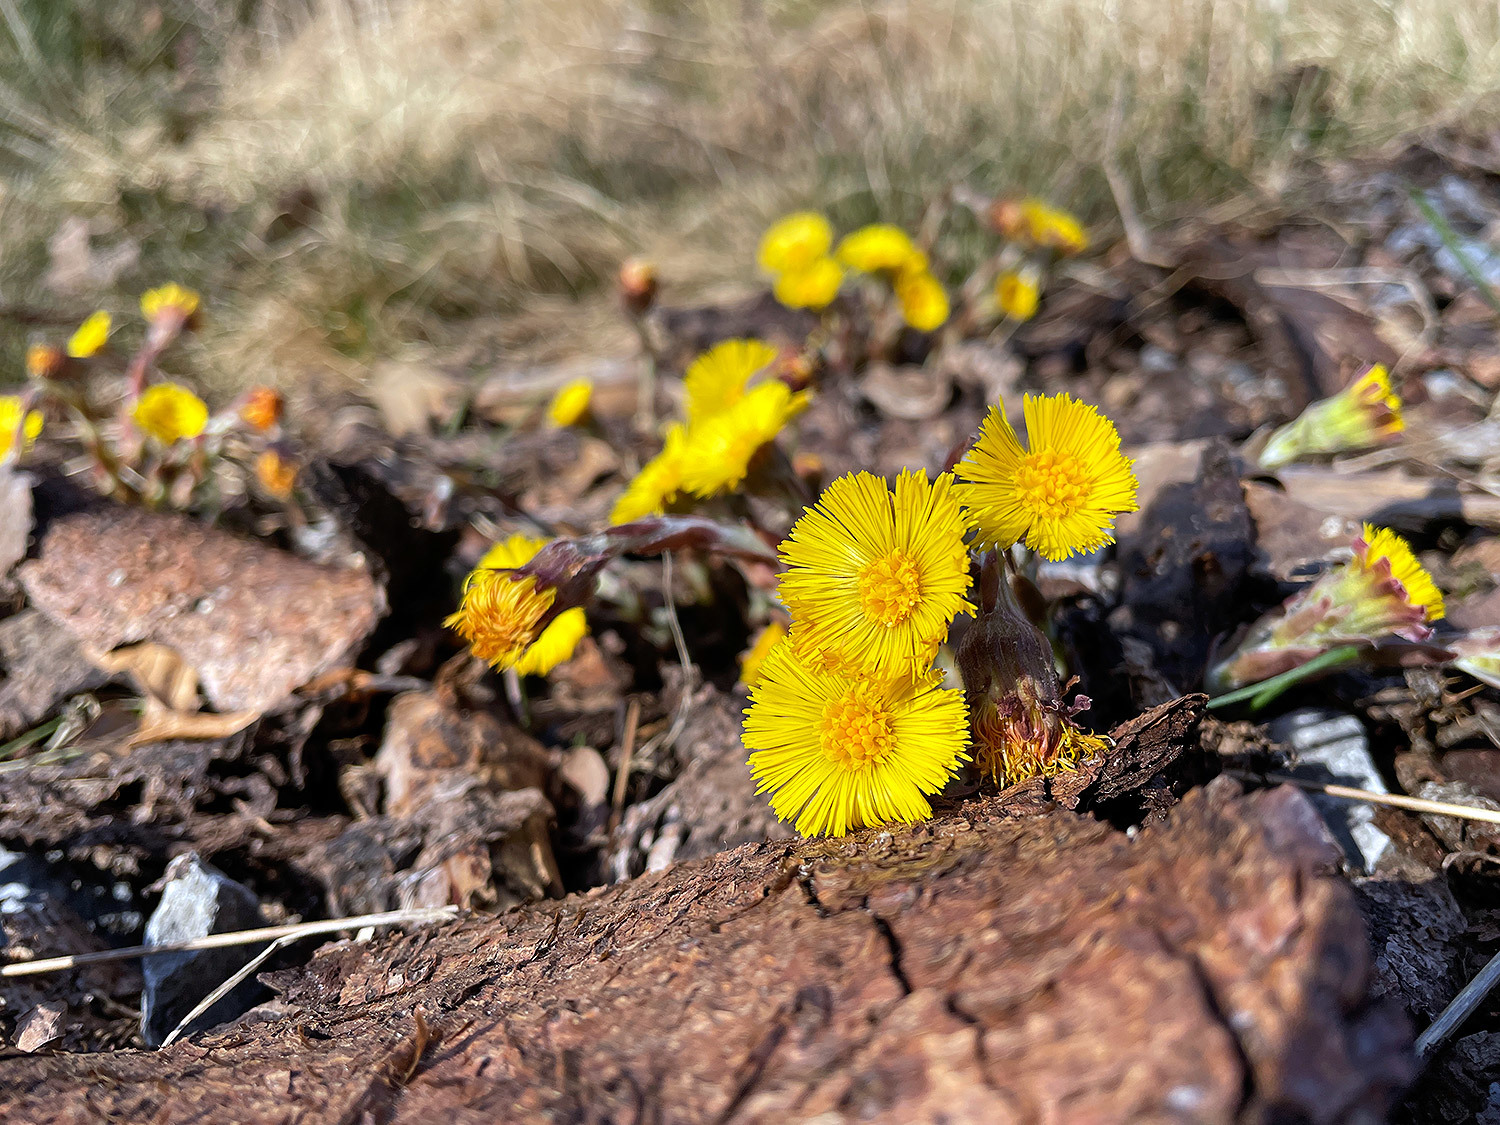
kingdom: Plantae
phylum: Tracheophyta
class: Magnoliopsida
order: Asterales
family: Asteraceae
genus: Tussilago
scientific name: Tussilago farfara
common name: Coltsfoot
